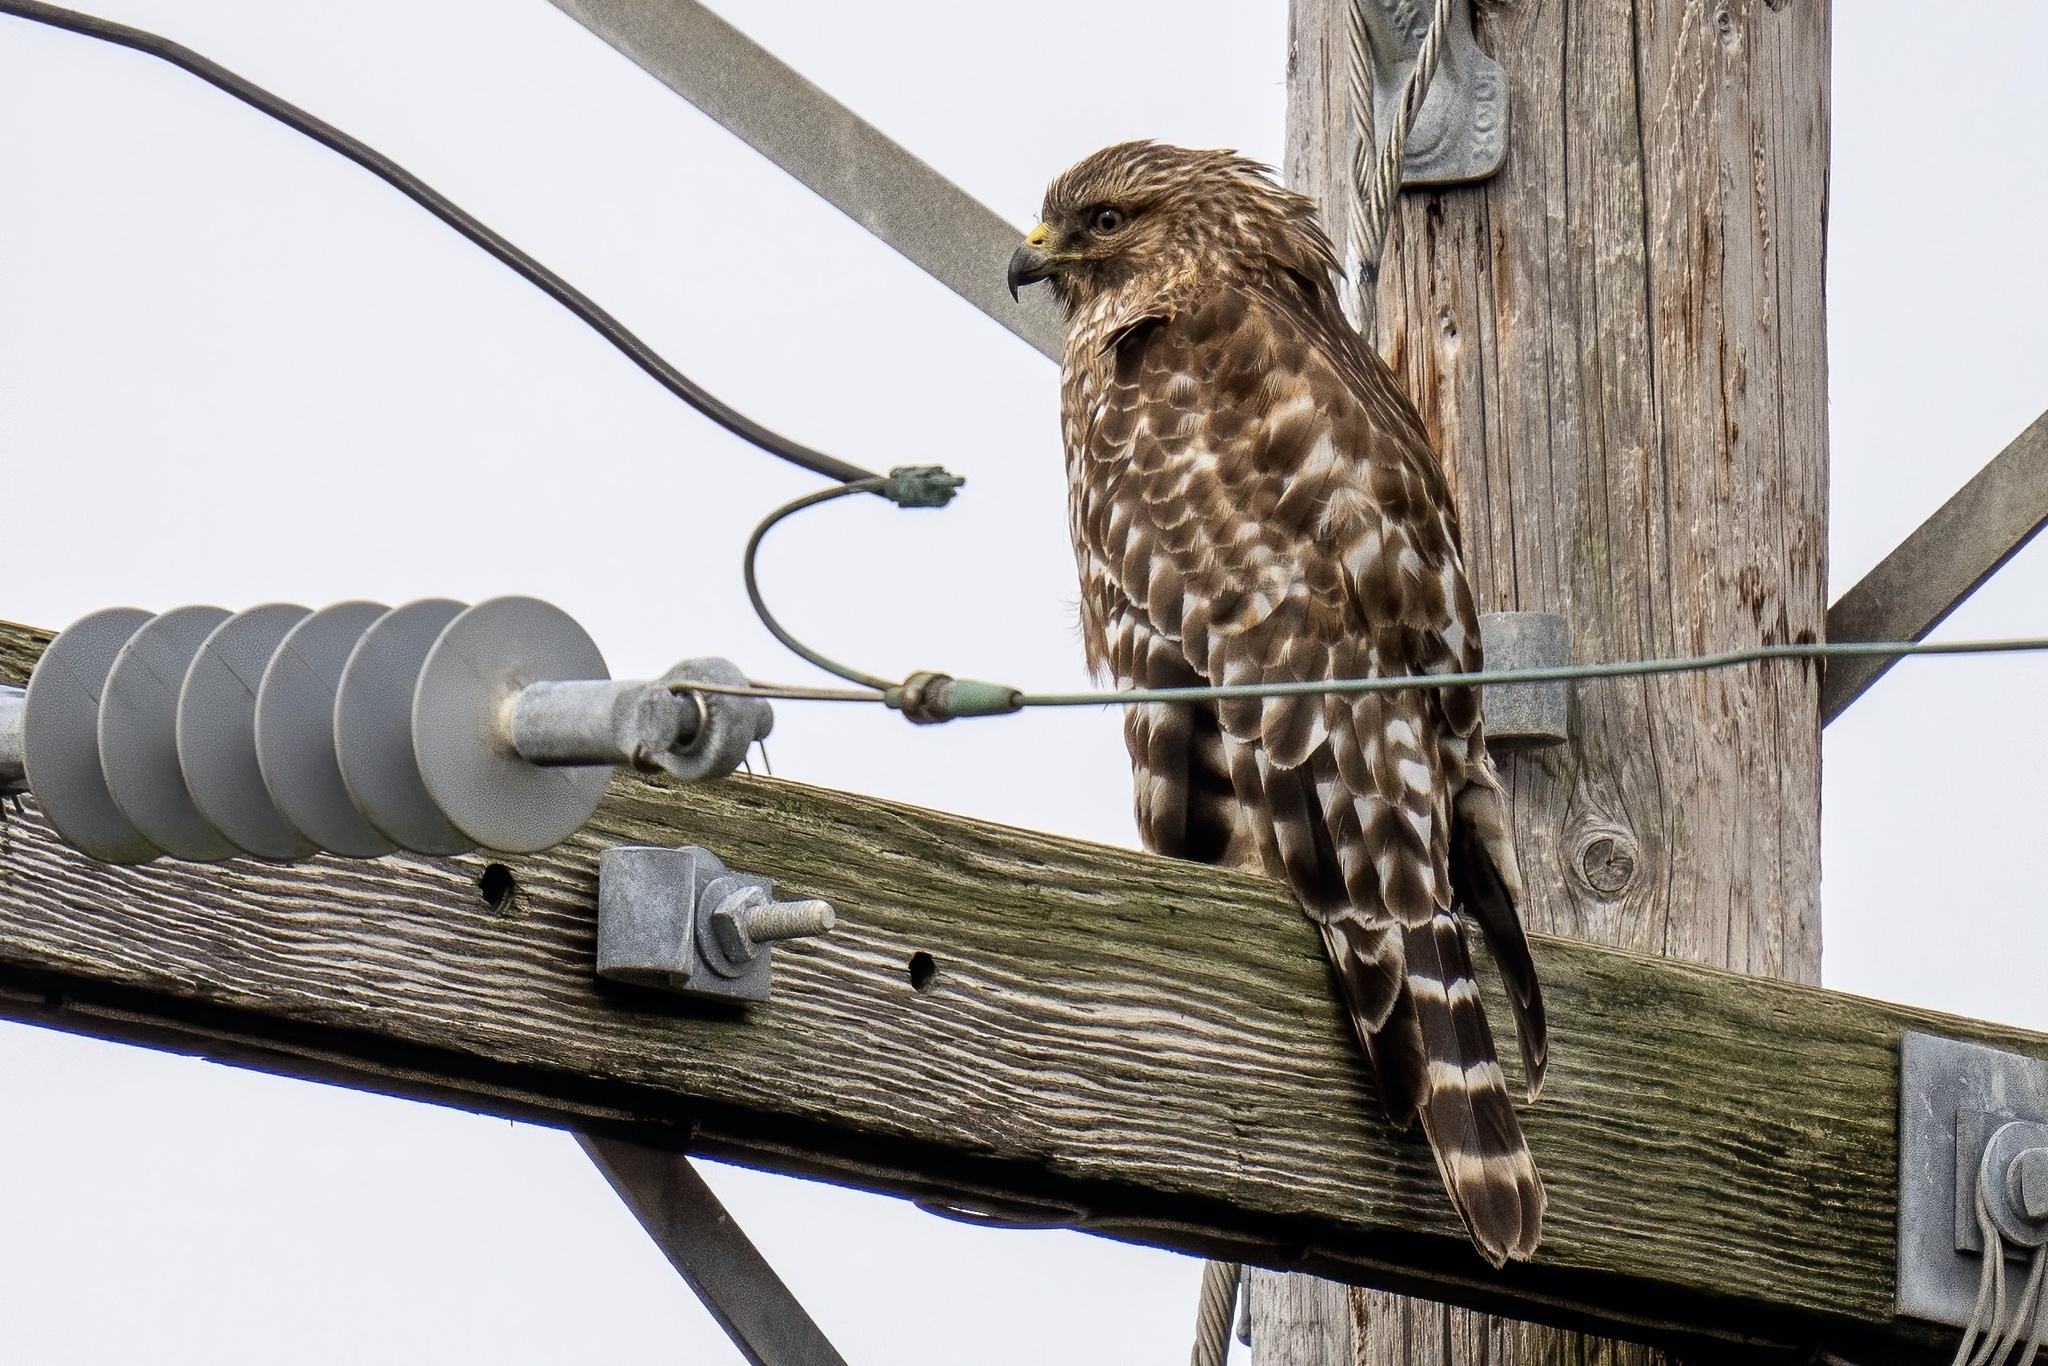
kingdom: Animalia
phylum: Chordata
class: Aves
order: Accipitriformes
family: Accipitridae
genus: Buteo
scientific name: Buteo lineatus
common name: Red-shouldered hawk
